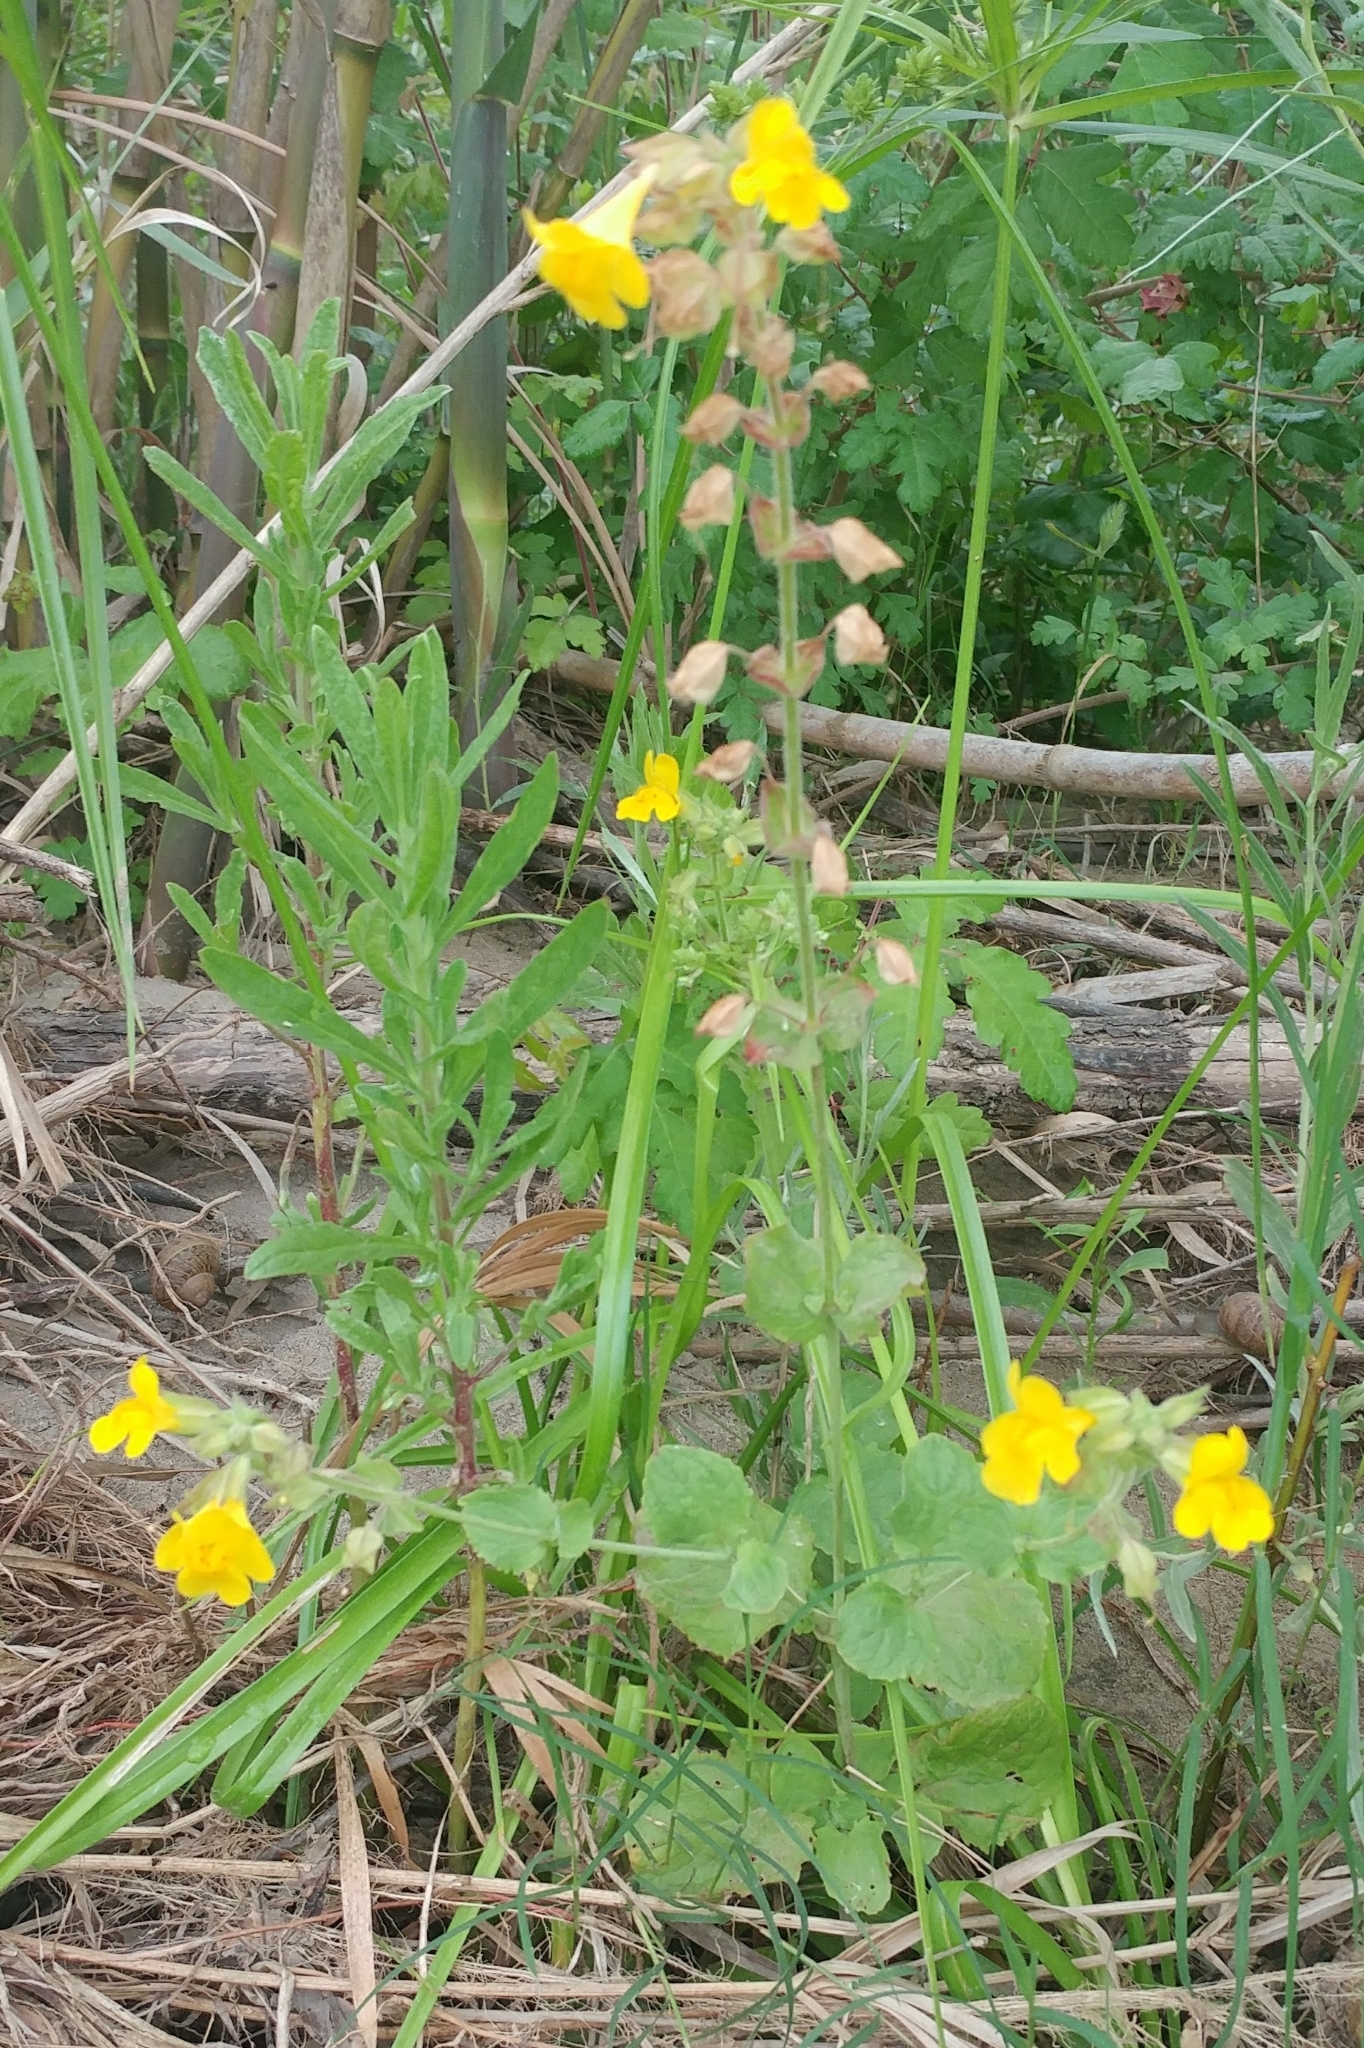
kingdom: Plantae
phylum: Tracheophyta
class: Magnoliopsida
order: Lamiales
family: Phrymaceae
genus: Erythranthe
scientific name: Erythranthe guttata
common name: Monkeyflower
